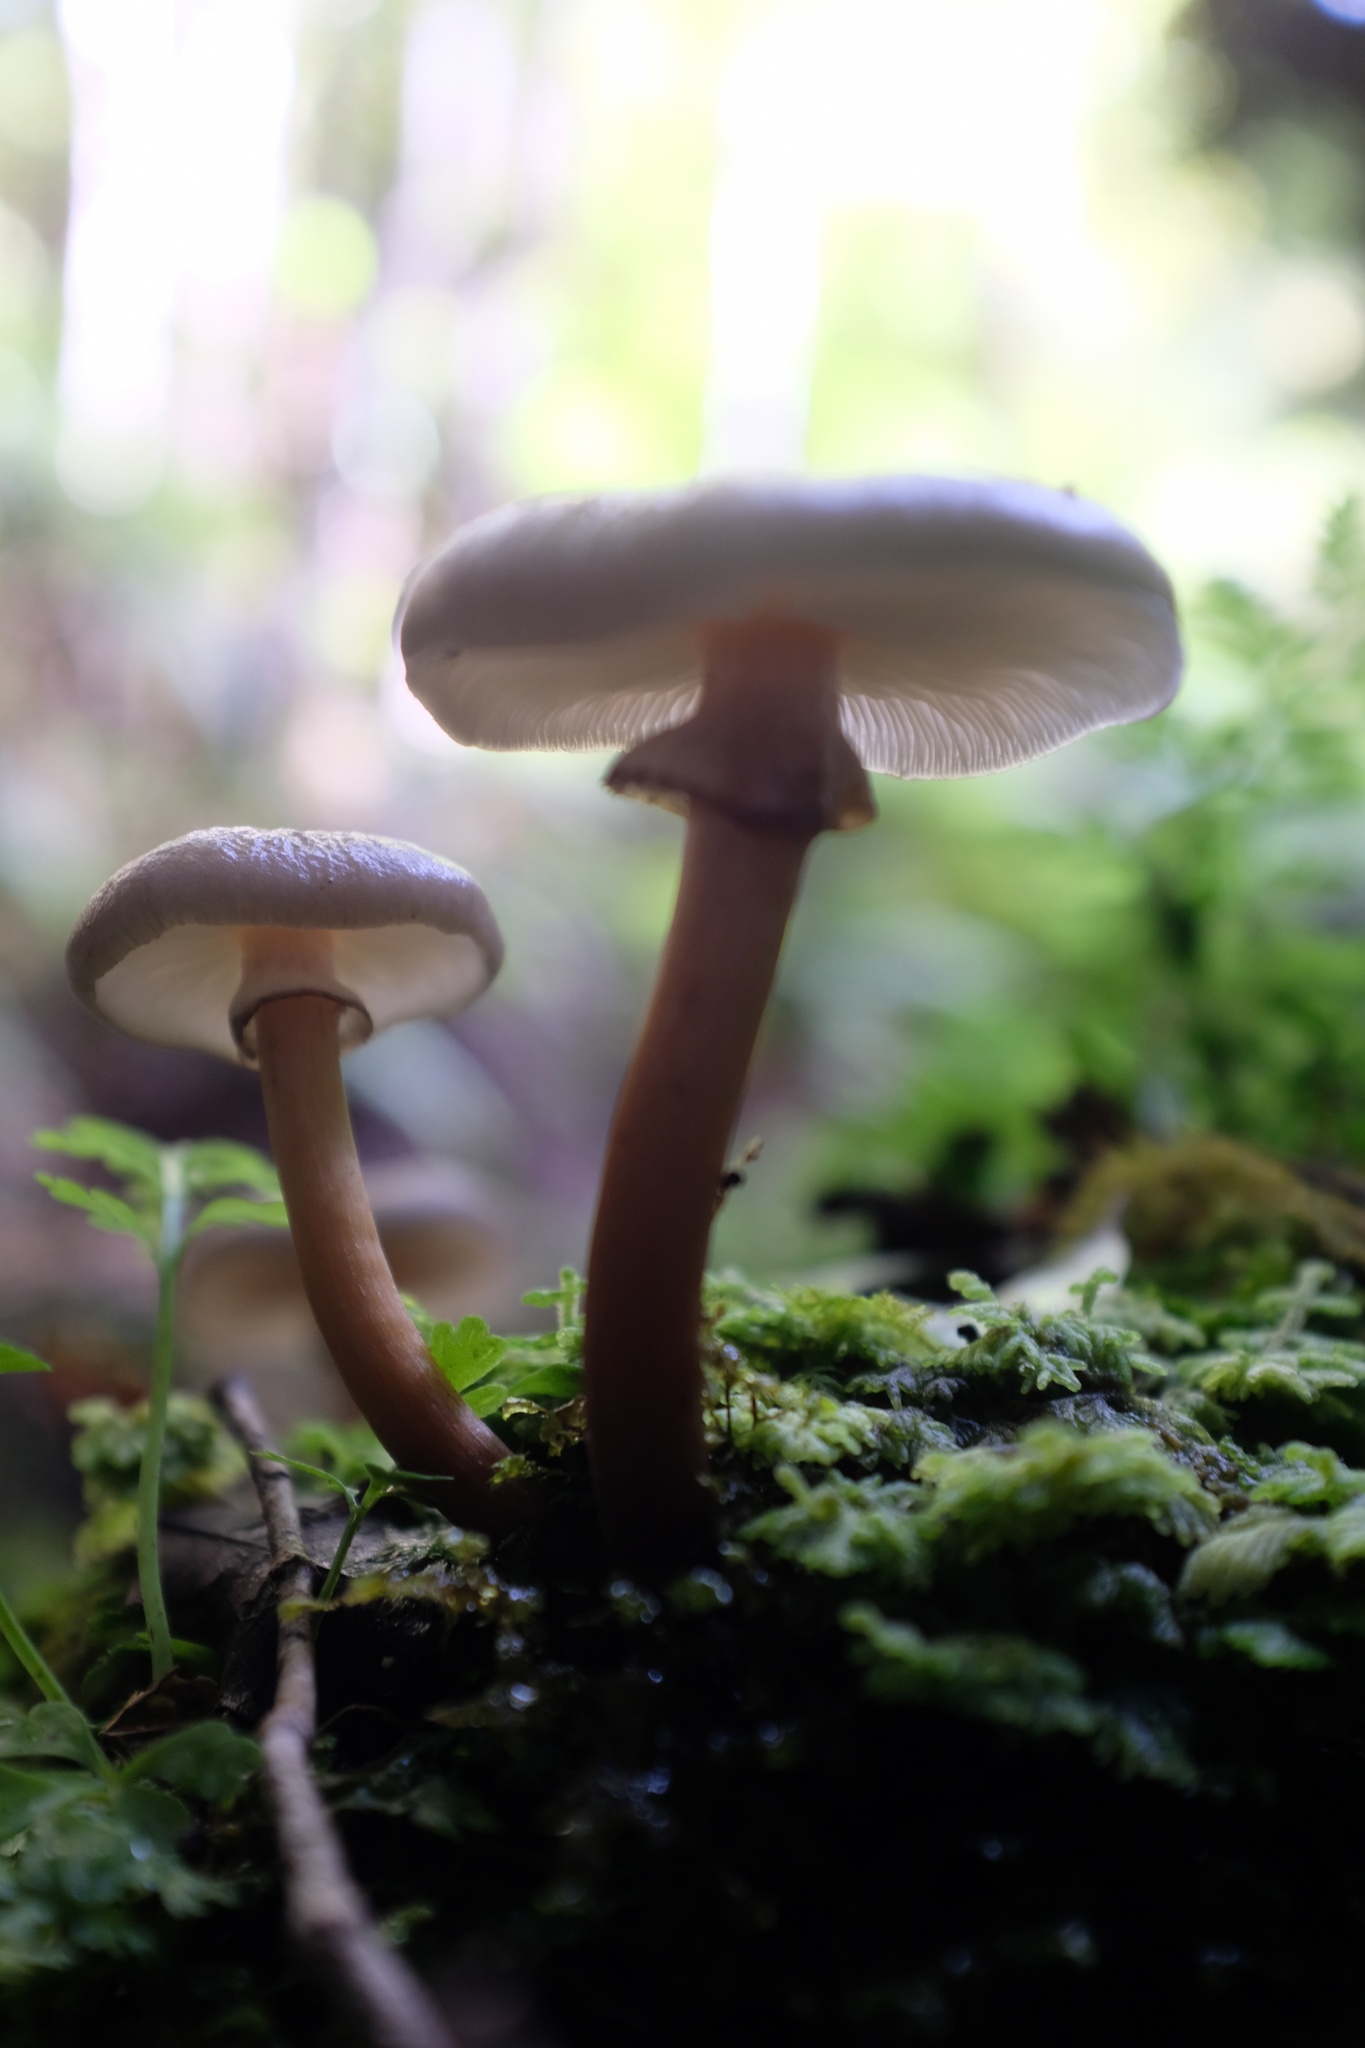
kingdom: Fungi
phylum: Basidiomycota
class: Agaricomycetes
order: Agaricales
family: Physalacriaceae
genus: Armillaria
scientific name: Armillaria novae-zelandiae
